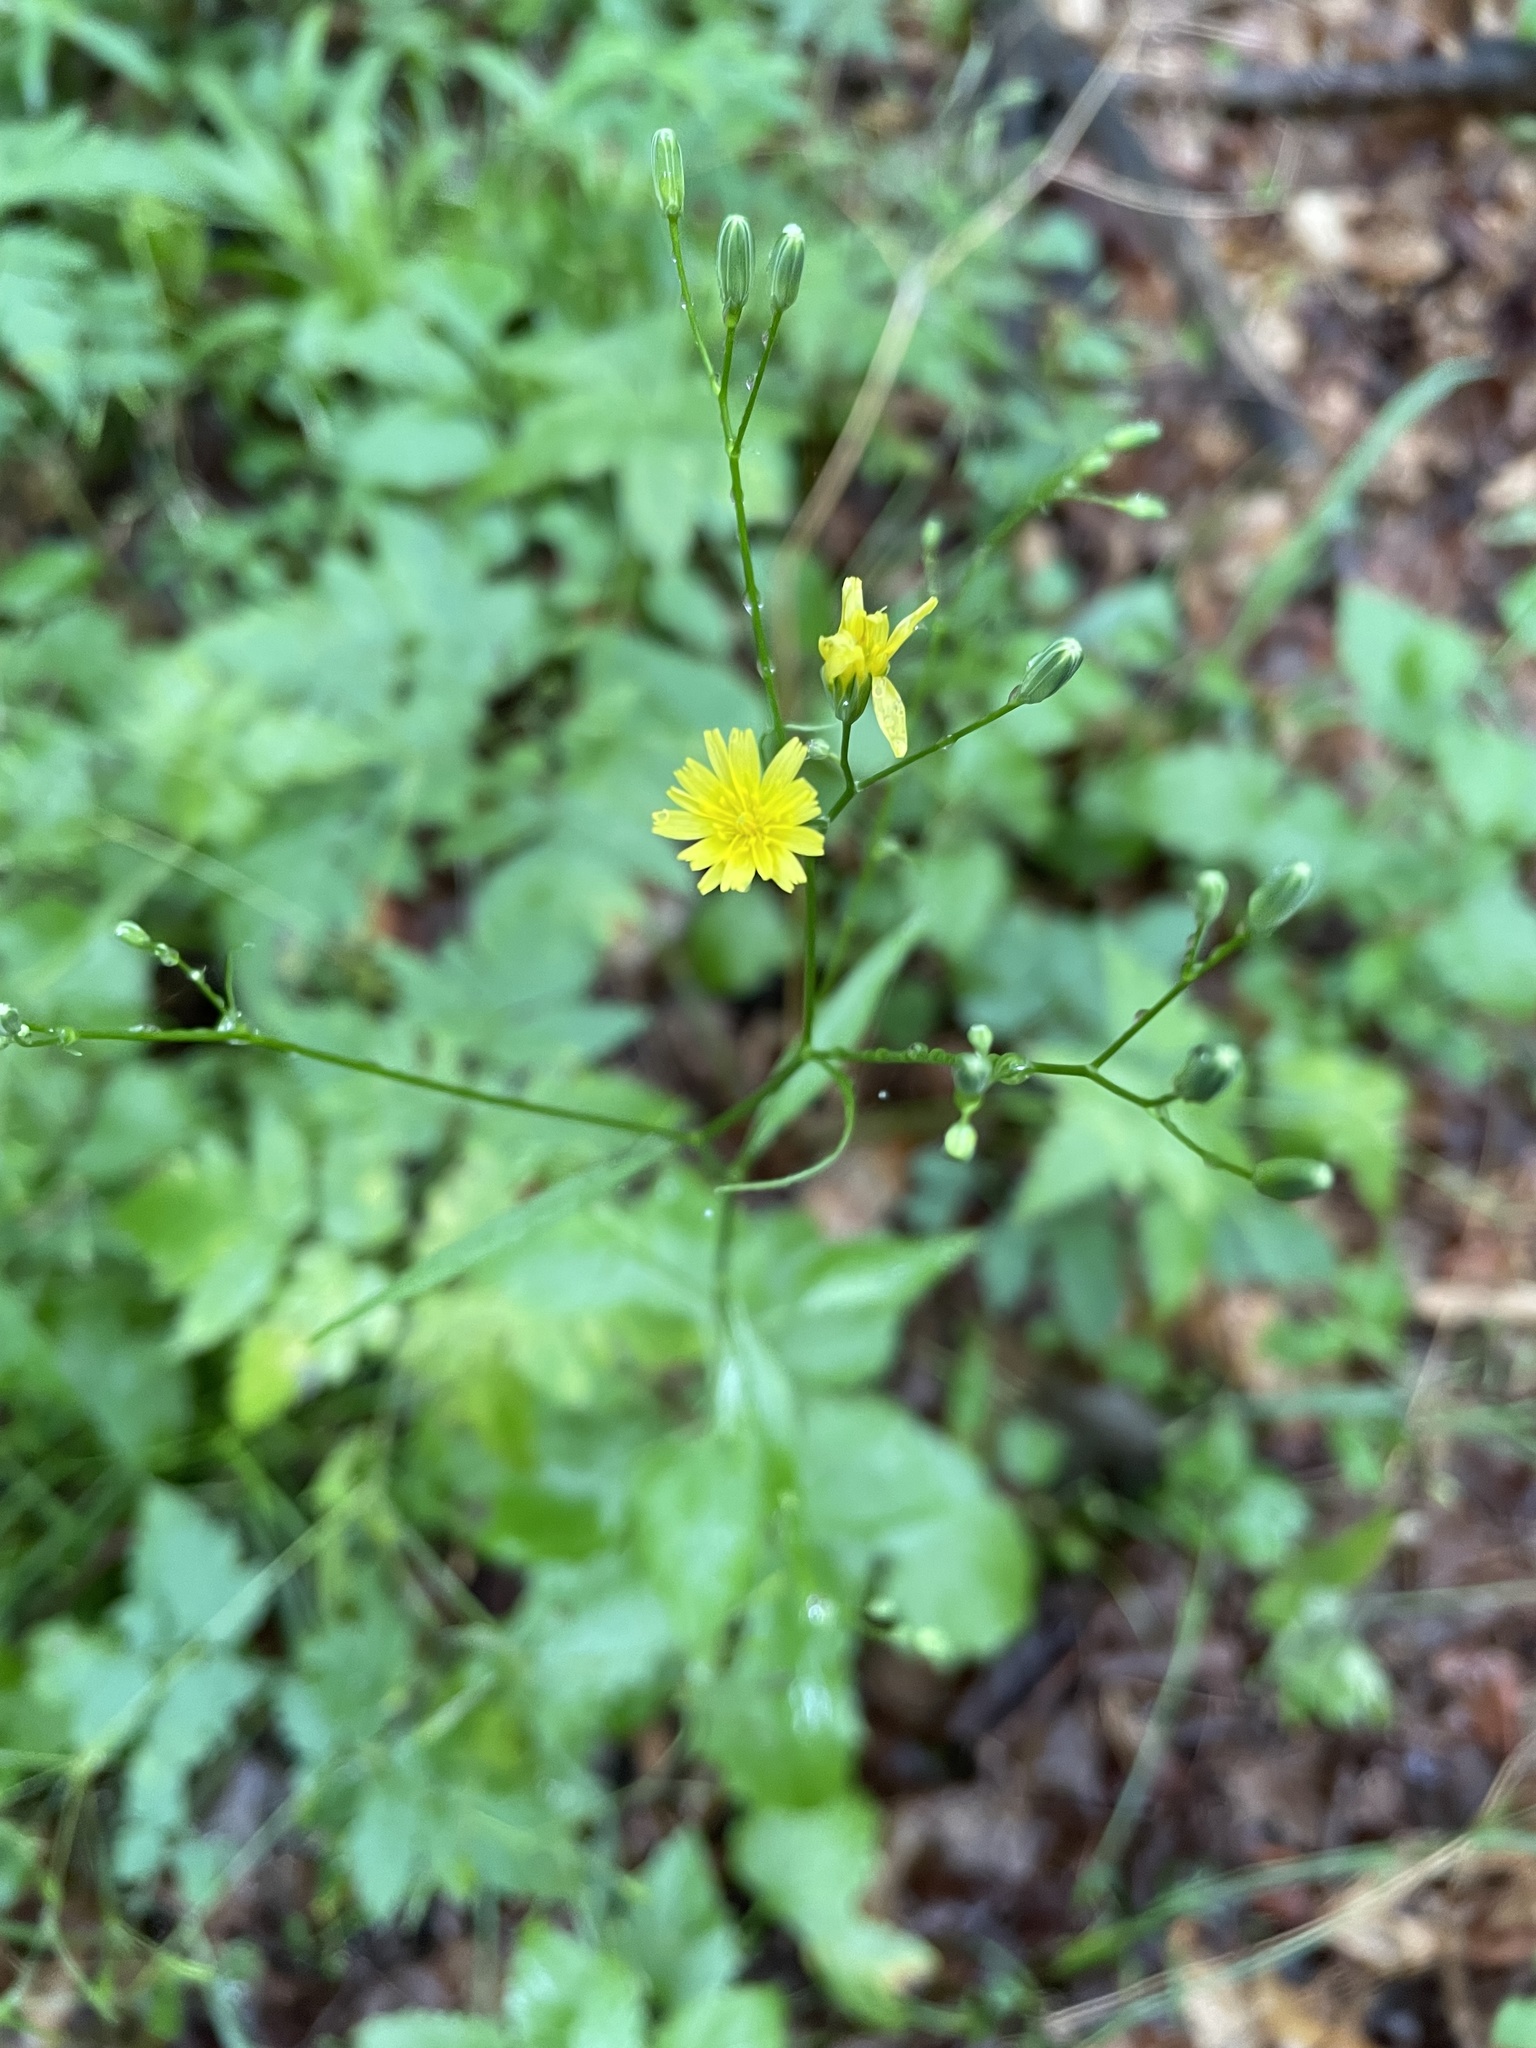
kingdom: Plantae
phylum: Tracheophyta
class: Magnoliopsida
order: Asterales
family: Asteraceae
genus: Lapsana
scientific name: Lapsana communis
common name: Nipplewort
